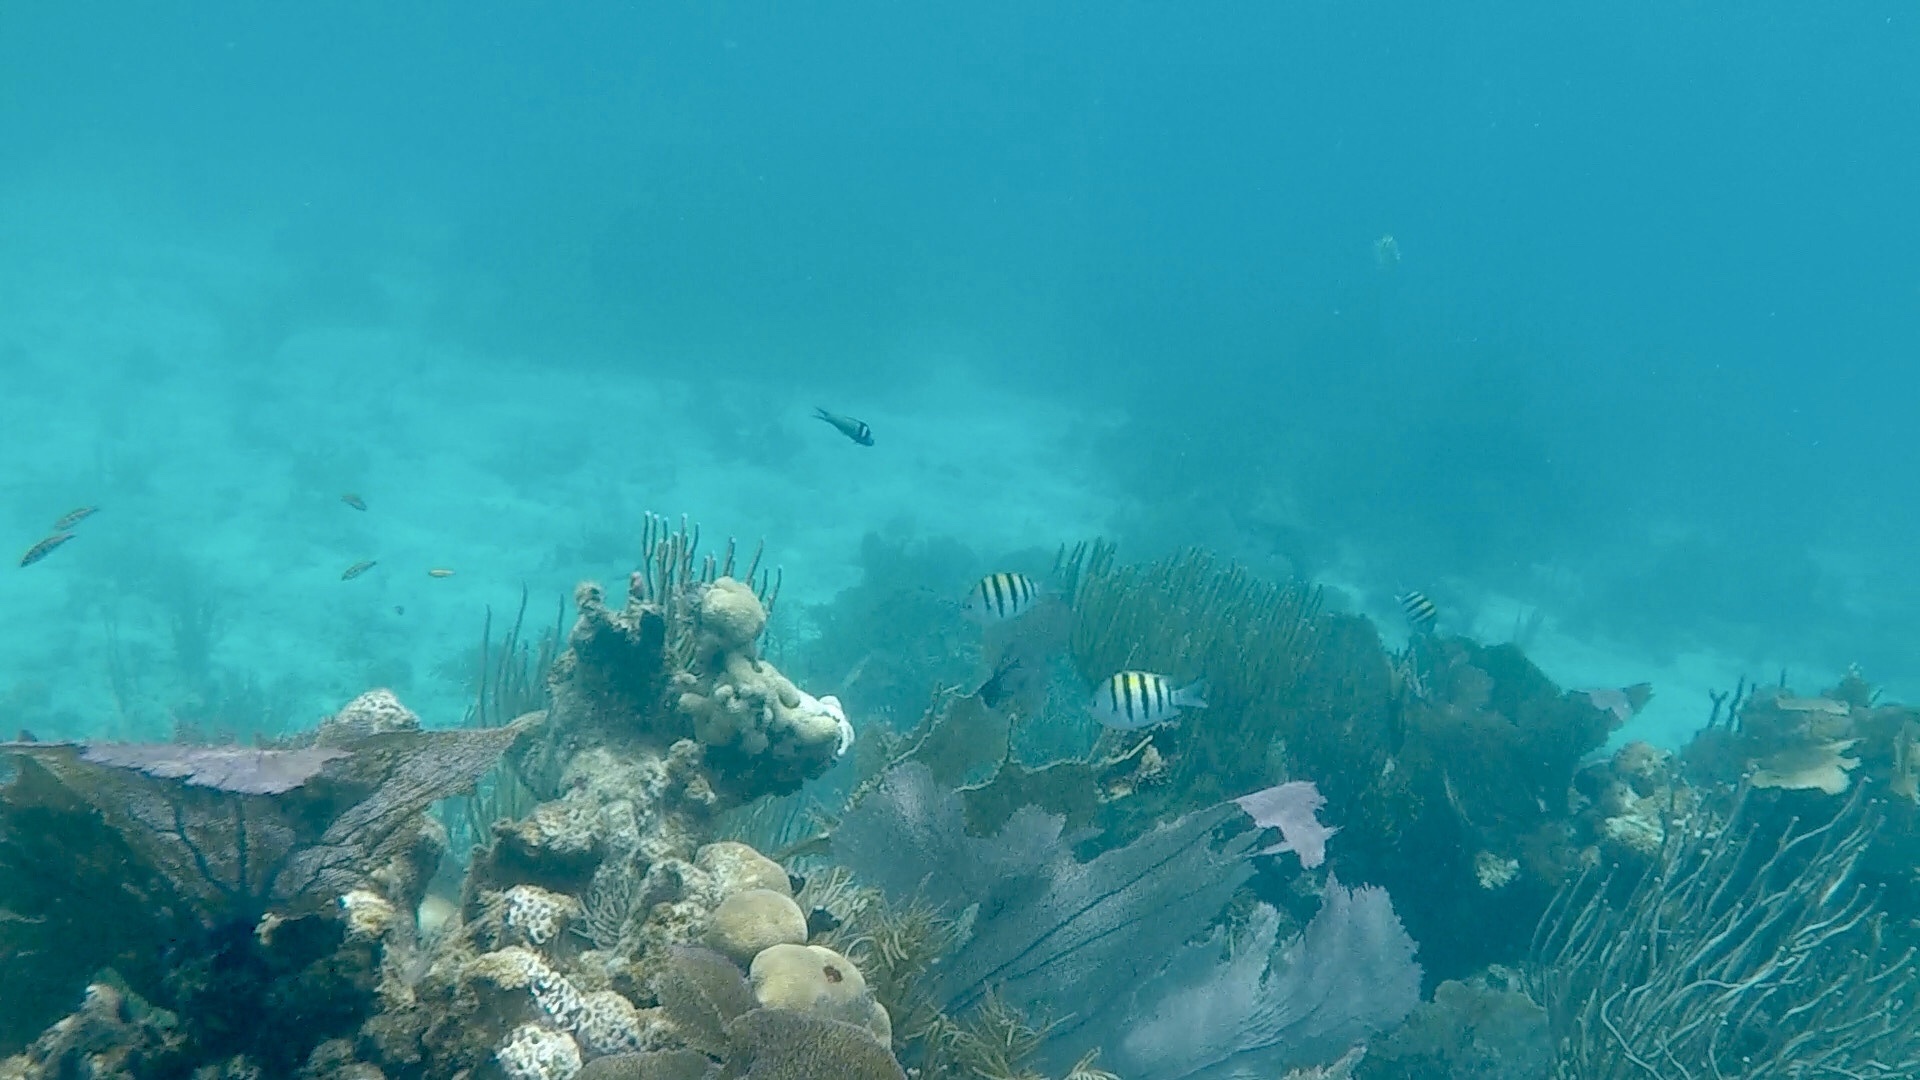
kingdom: Animalia
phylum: Chordata
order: Perciformes
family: Pomacentridae
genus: Abudefduf
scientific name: Abudefduf saxatilis
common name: Sergeant major
